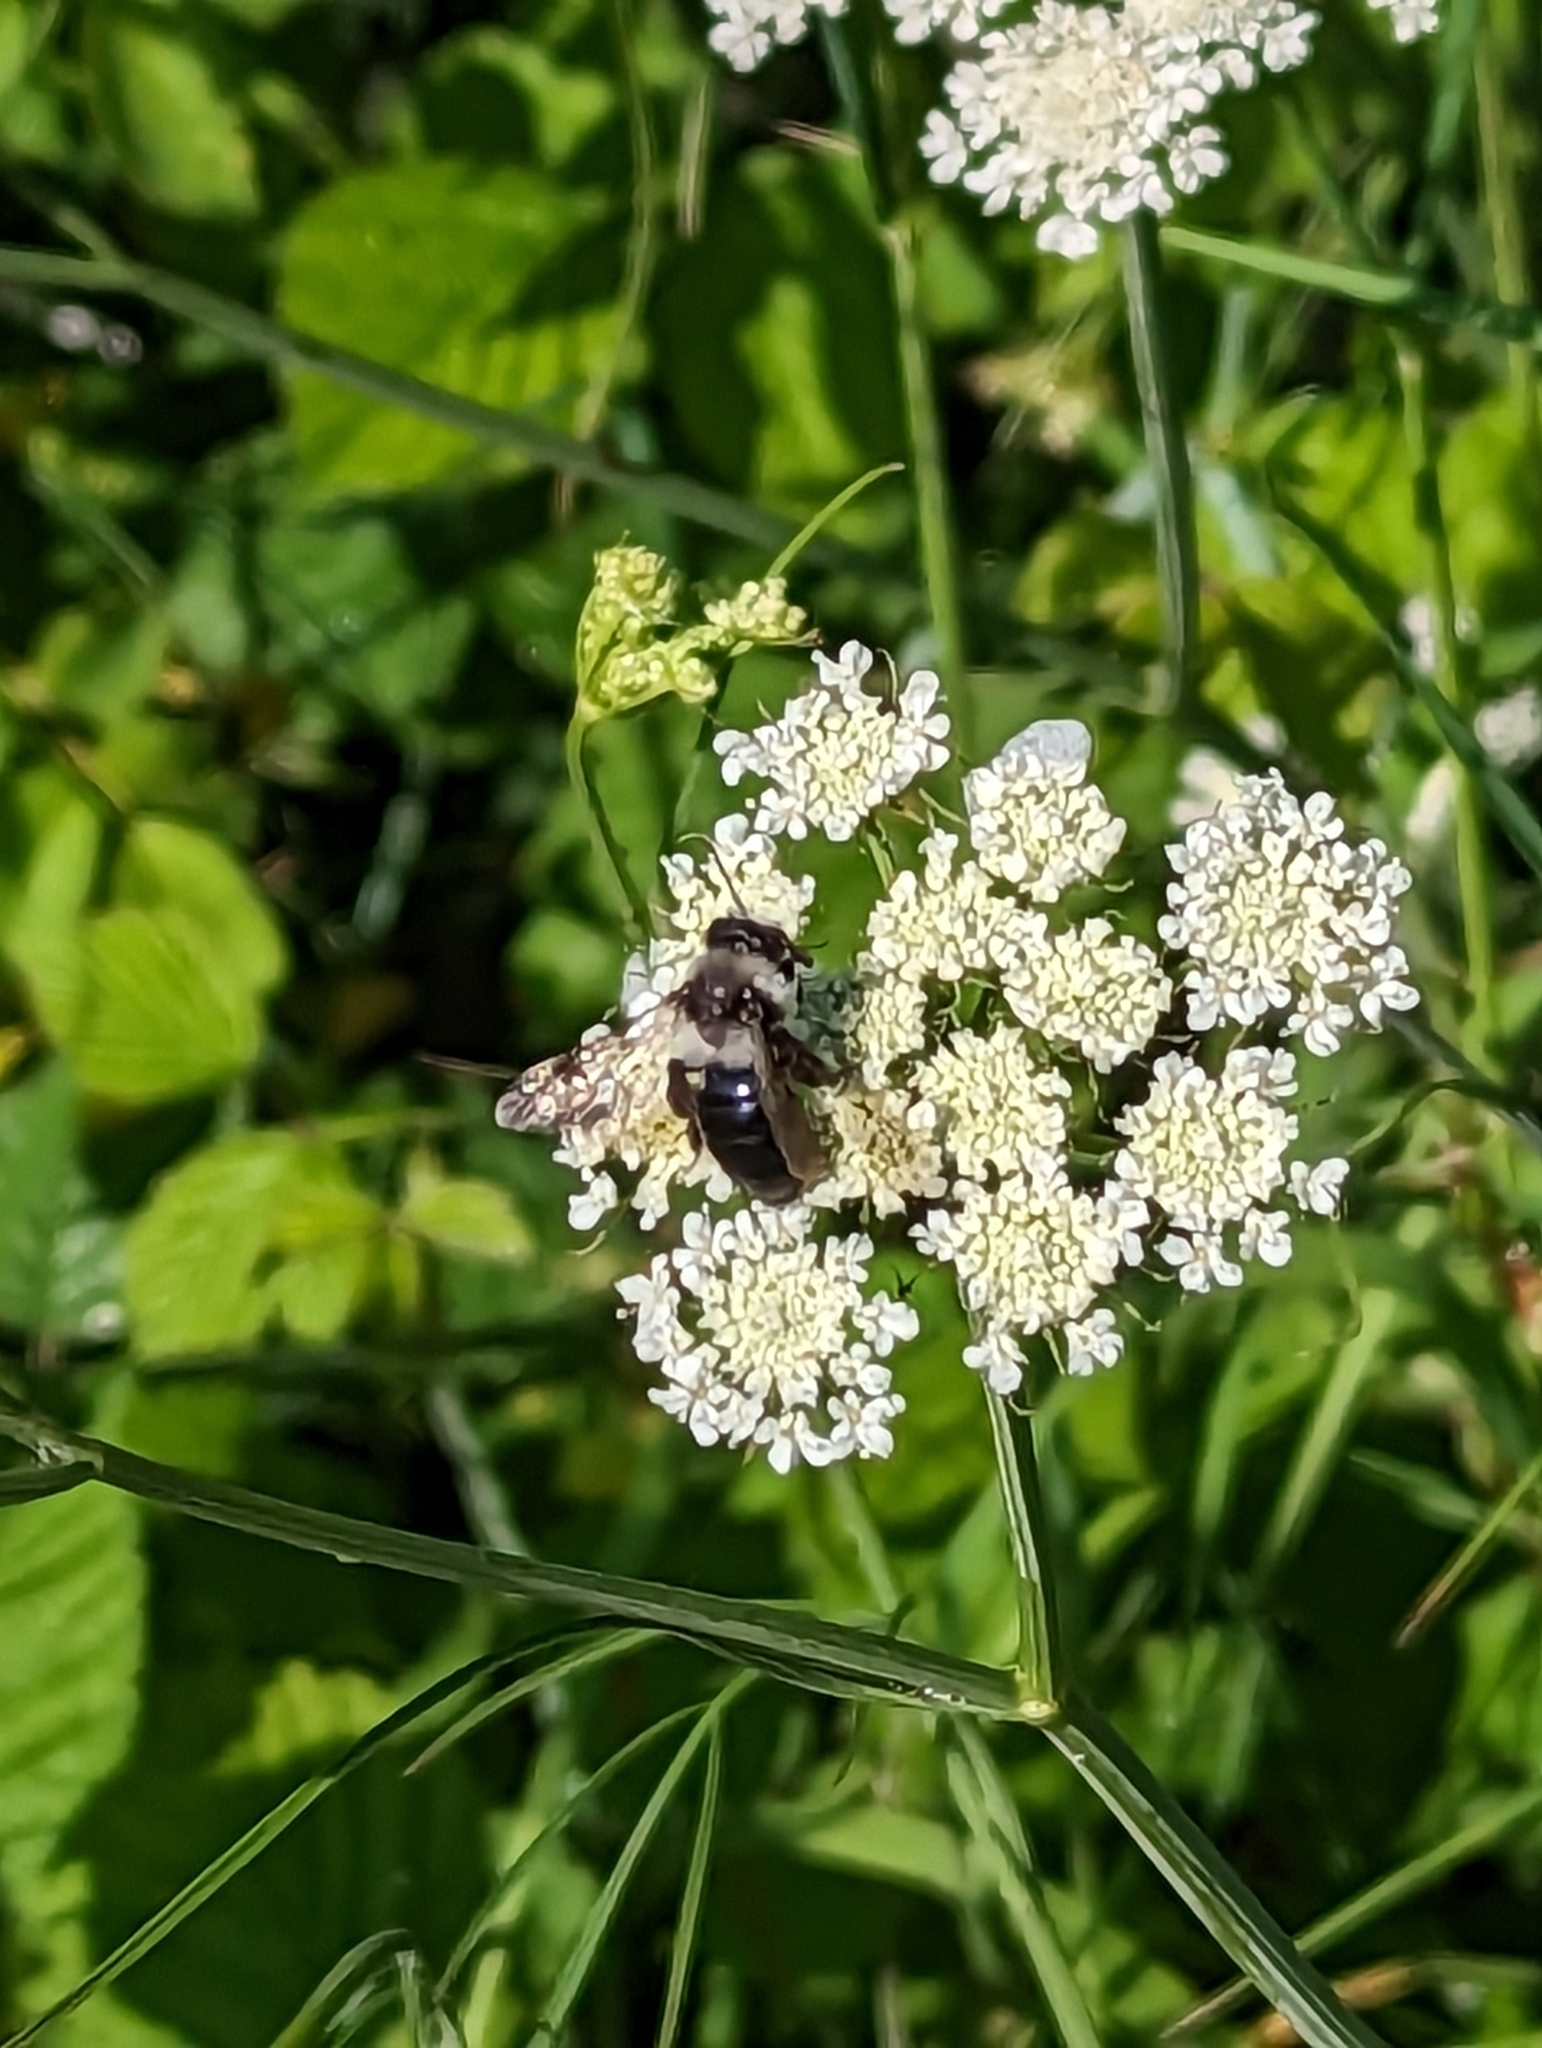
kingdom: Animalia
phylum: Arthropoda
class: Insecta
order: Hymenoptera
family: Andrenidae
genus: Andrena
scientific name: Andrena cineraria
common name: Ashy mining bee
